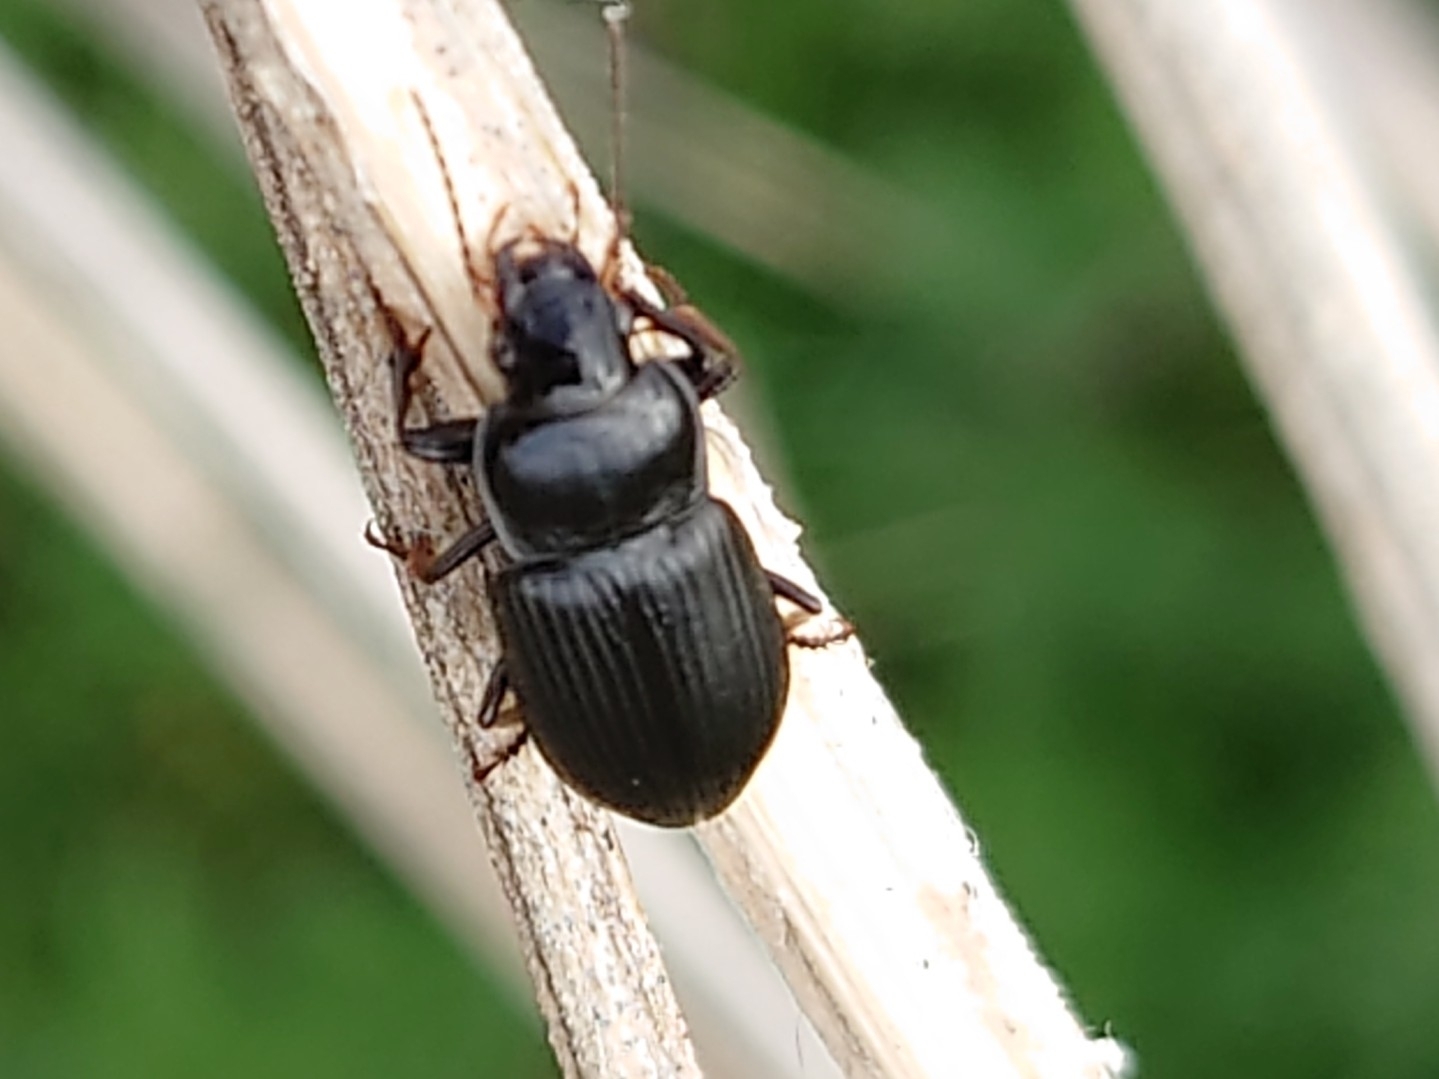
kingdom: Animalia
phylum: Arthropoda
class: Insecta
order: Coleoptera
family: Carabidae
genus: Anisodactylus
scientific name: Anisodactylus binotatus
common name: Two-marked harp ground beetle
